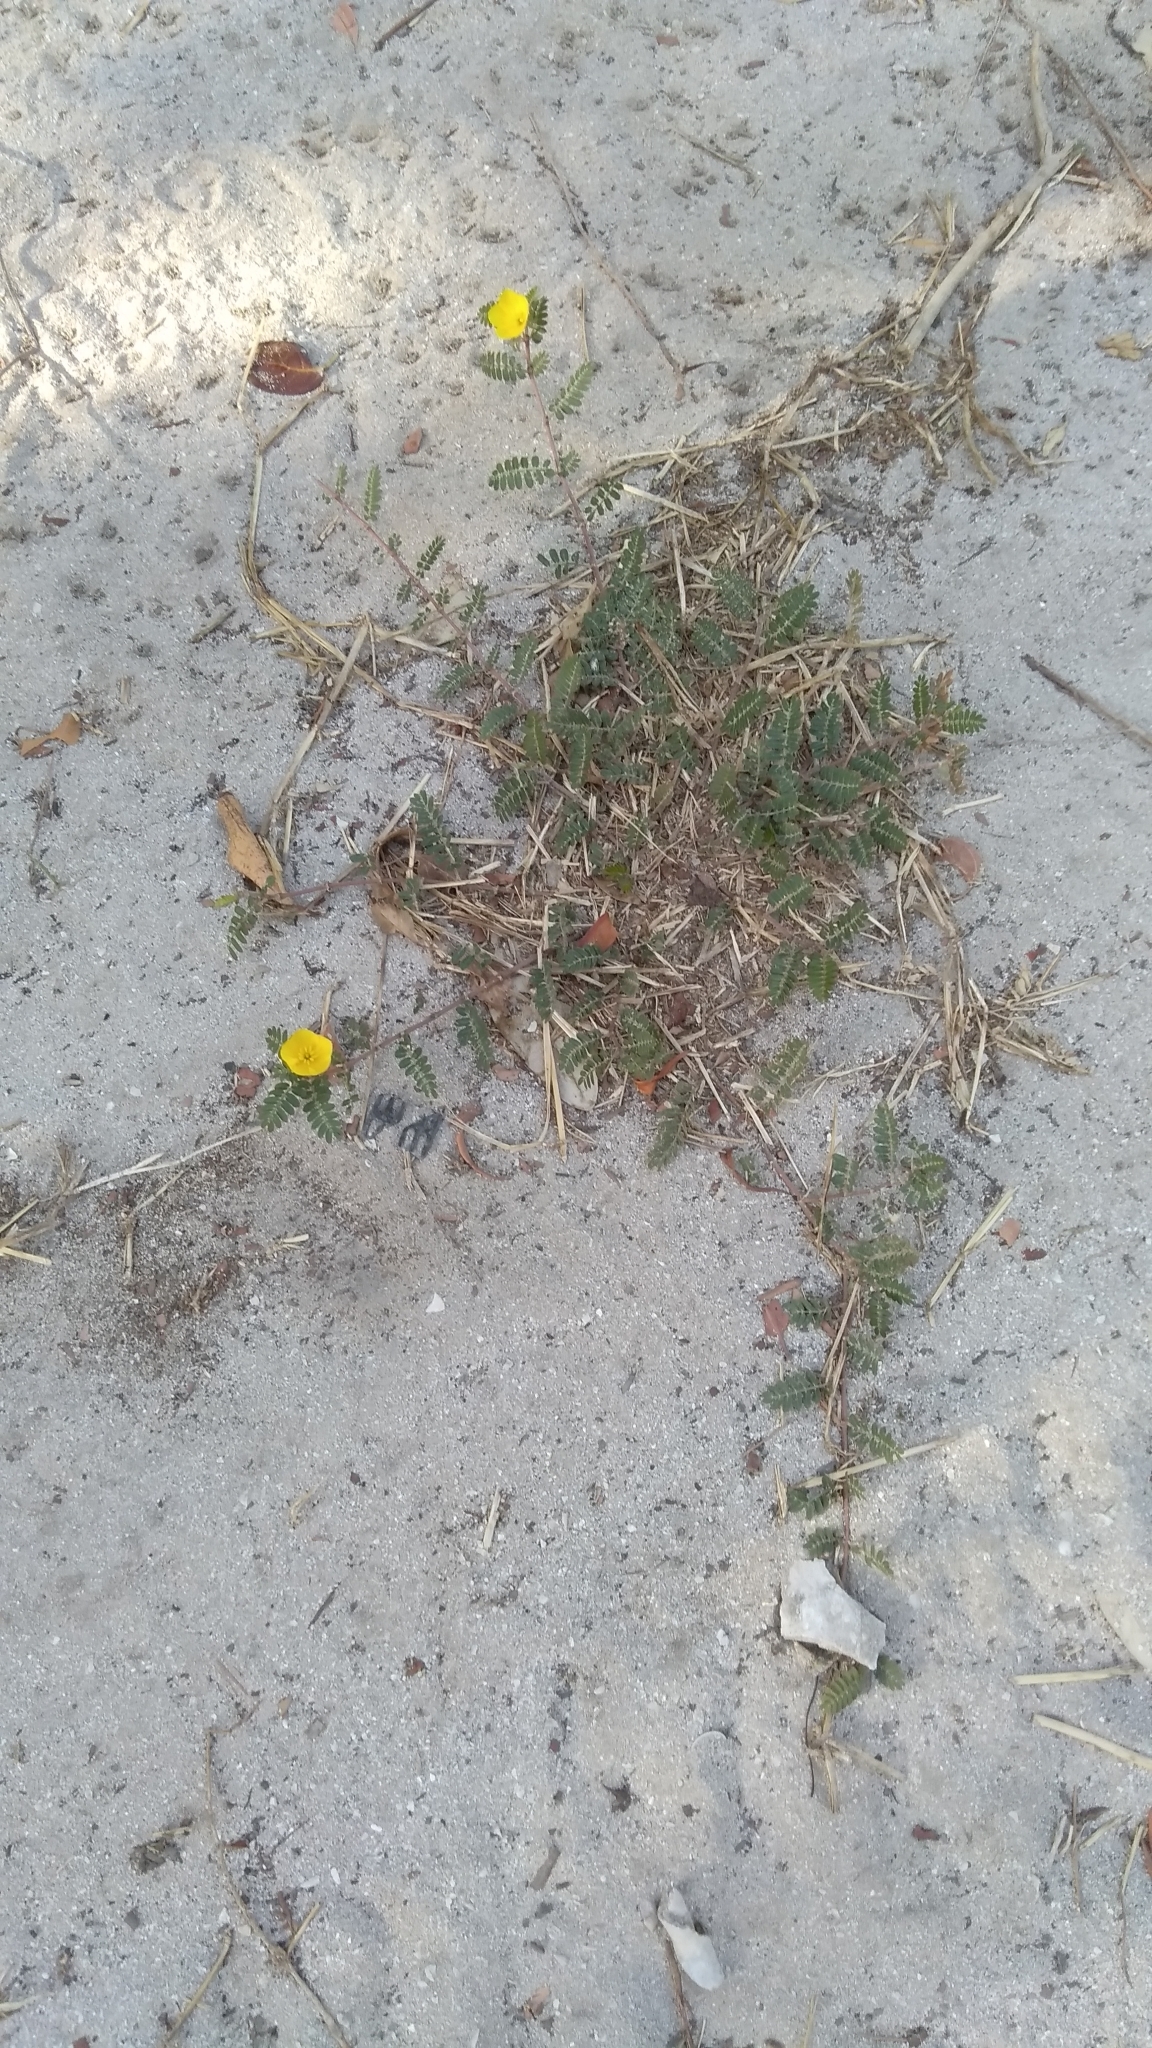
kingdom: Plantae
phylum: Tracheophyta
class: Magnoliopsida
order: Zygophyllales
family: Zygophyllaceae
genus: Tribulus
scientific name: Tribulus cistoides
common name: Jamaican feverplant
